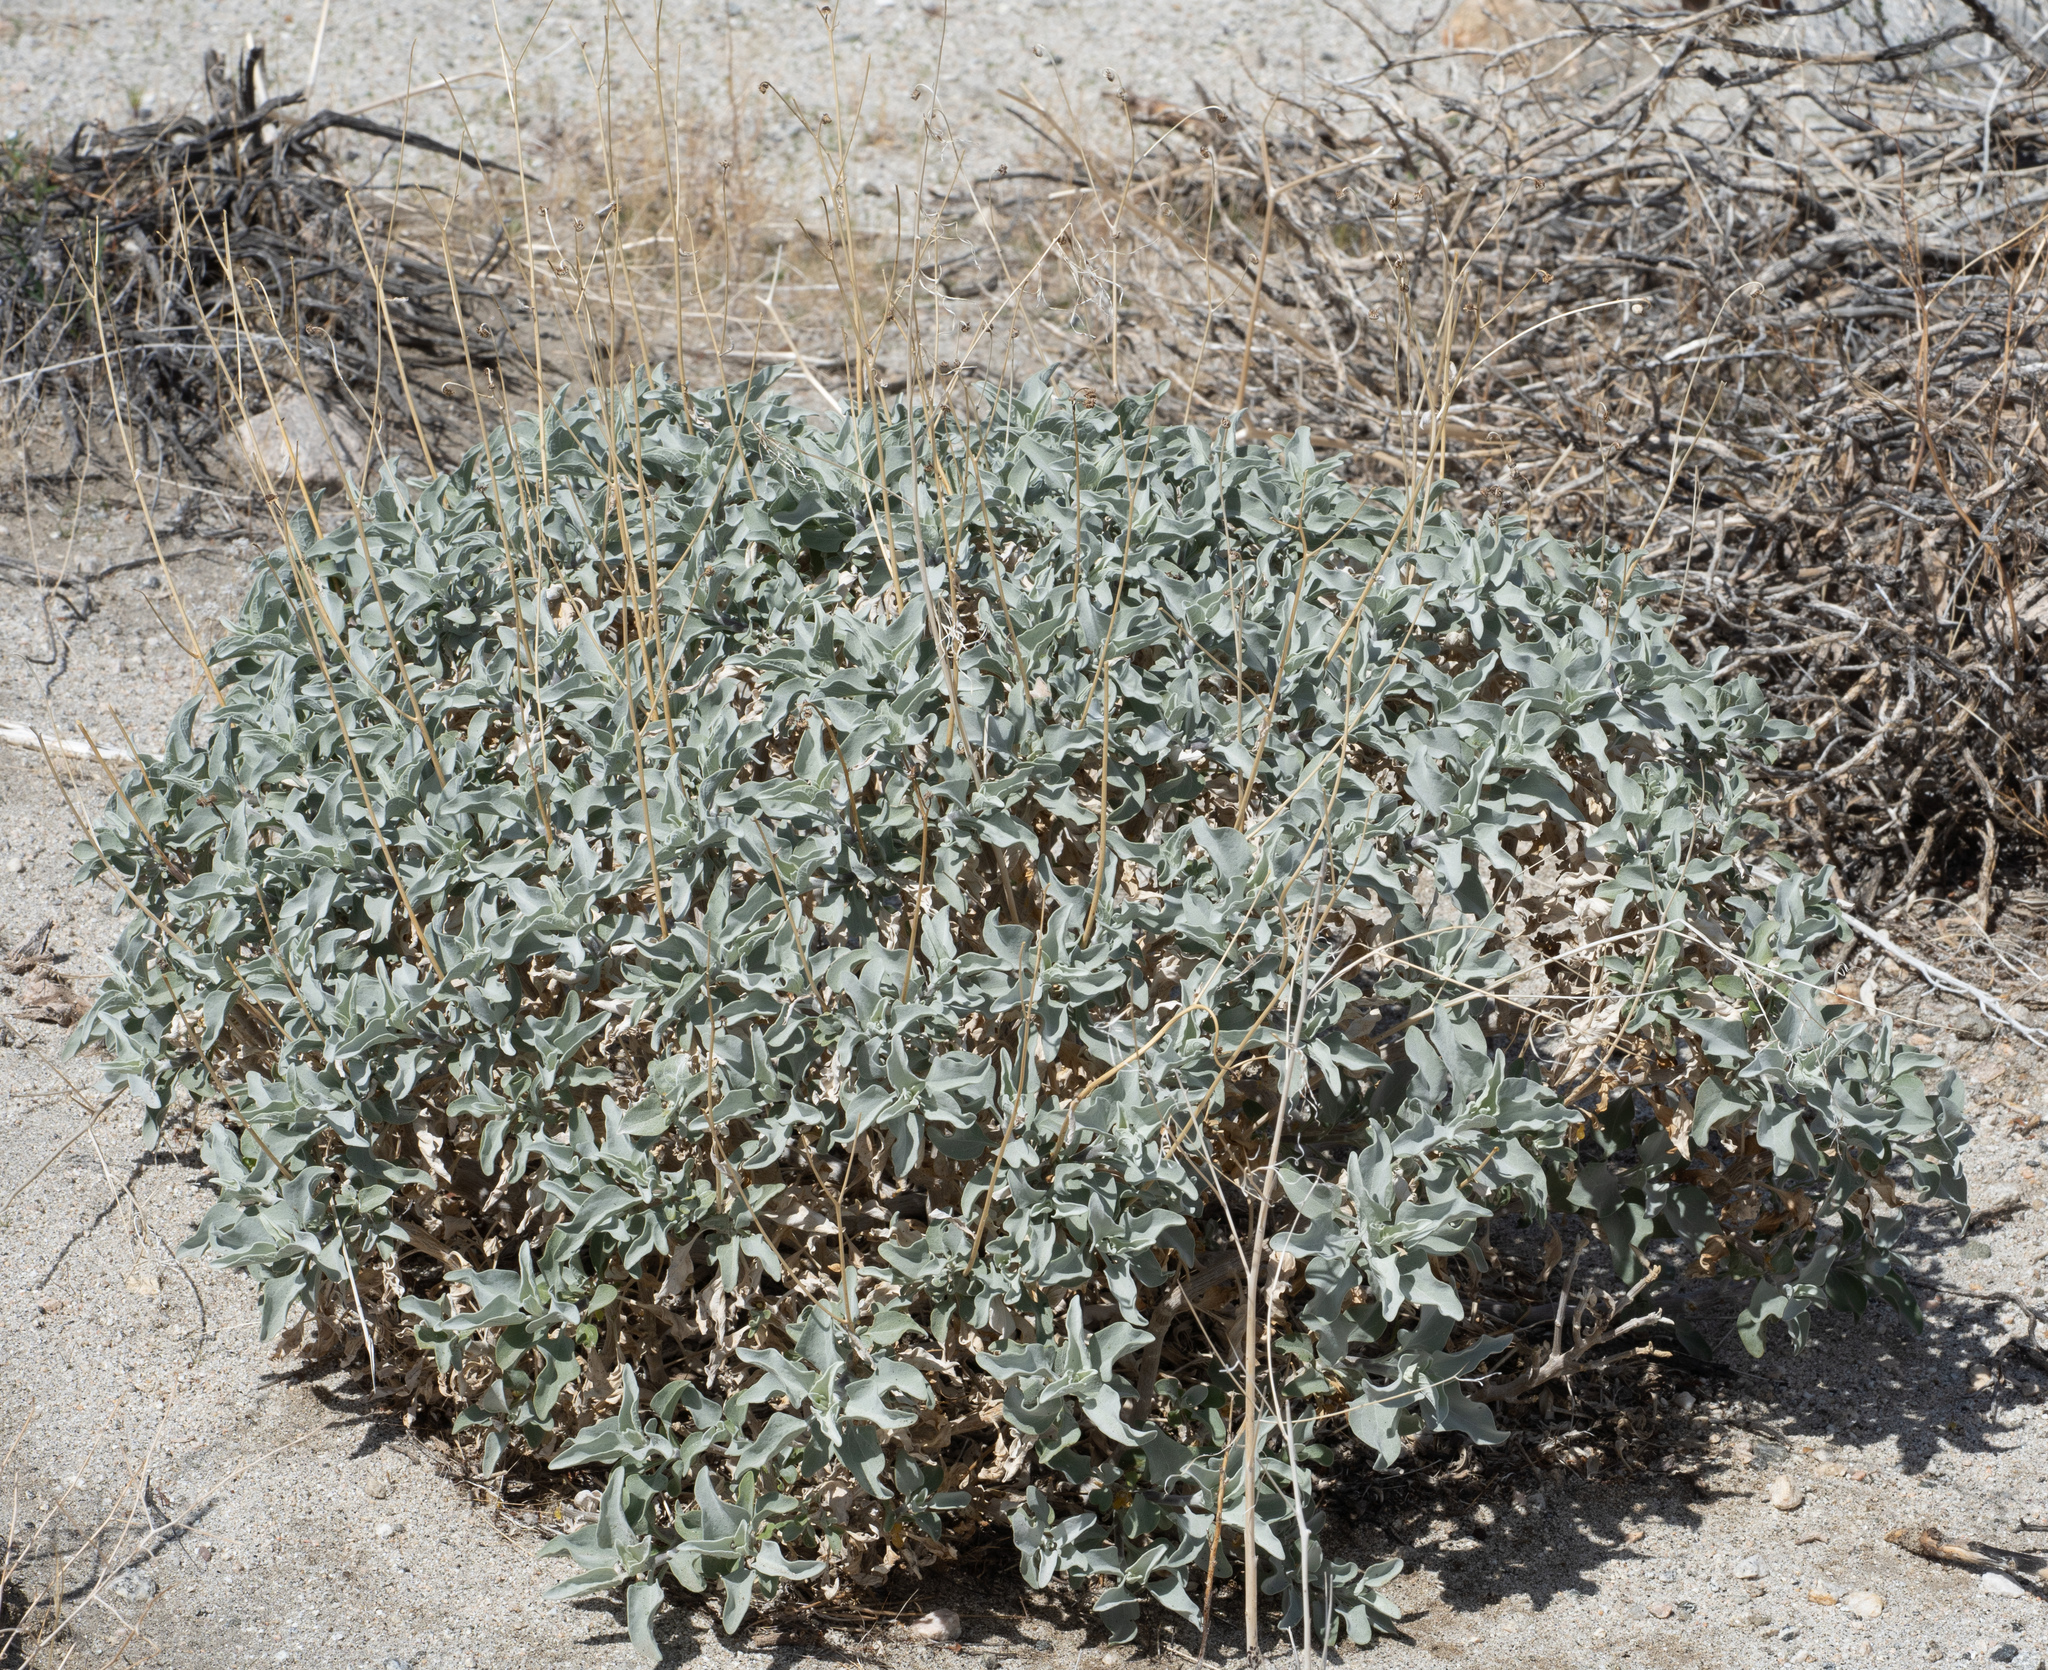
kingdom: Plantae
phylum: Tracheophyta
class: Magnoliopsida
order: Asterales
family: Asteraceae
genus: Encelia
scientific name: Encelia farinosa
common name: Brittlebush
